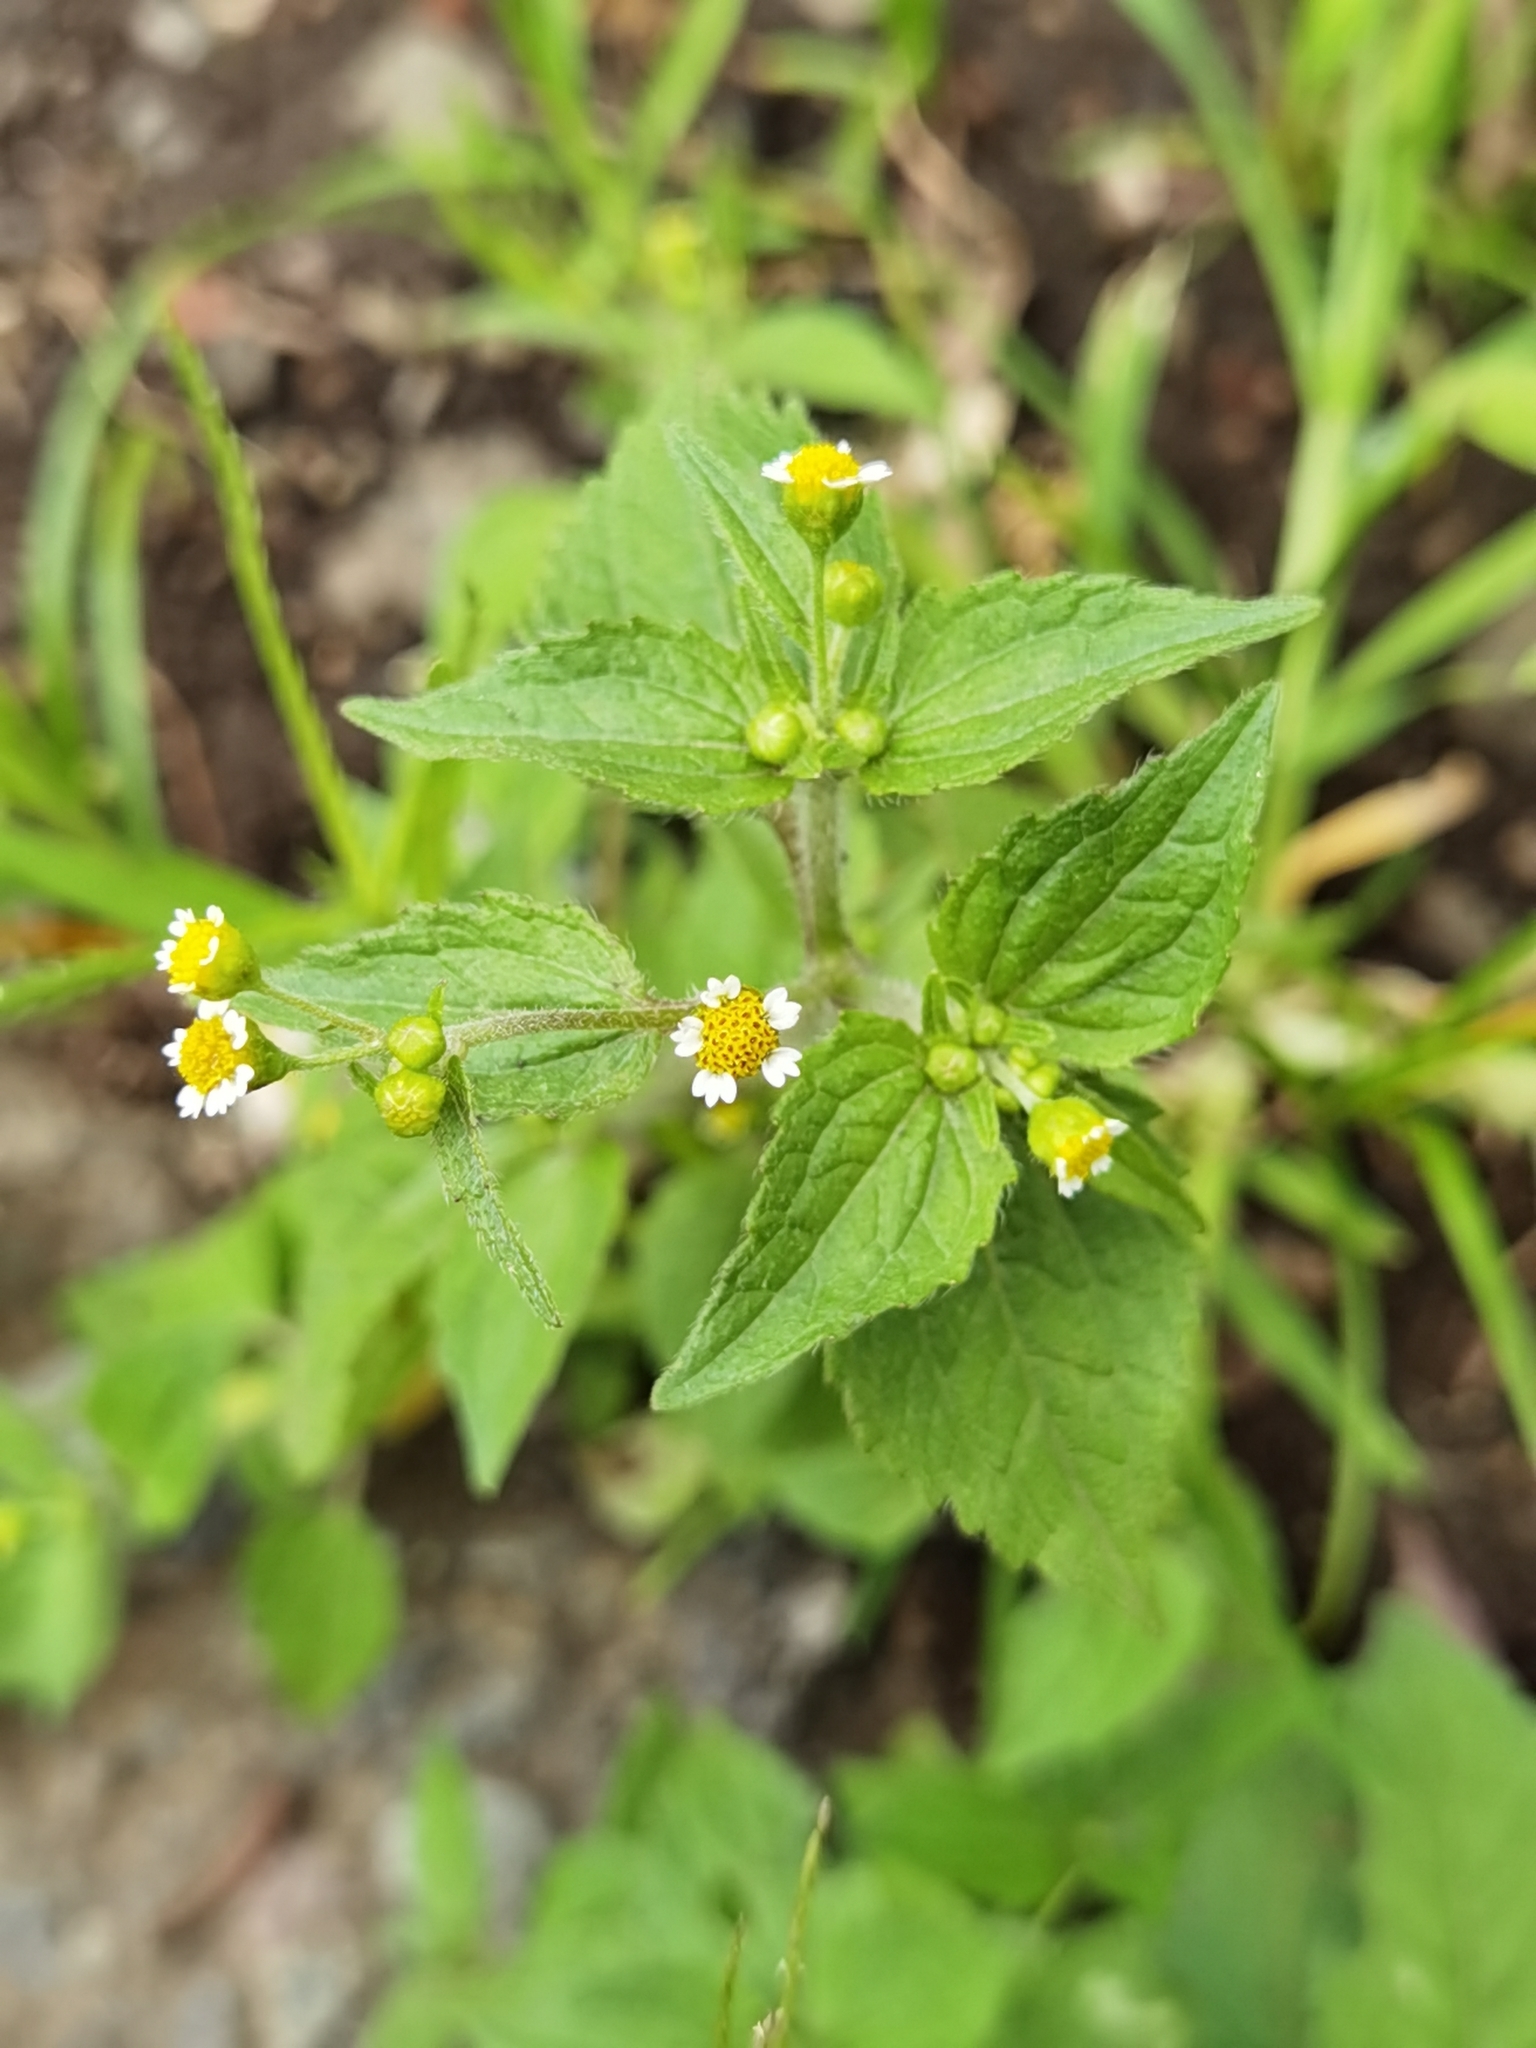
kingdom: Plantae
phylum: Tracheophyta
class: Magnoliopsida
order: Asterales
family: Asteraceae
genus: Galinsoga
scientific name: Galinsoga quadriradiata
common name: Shaggy soldier
